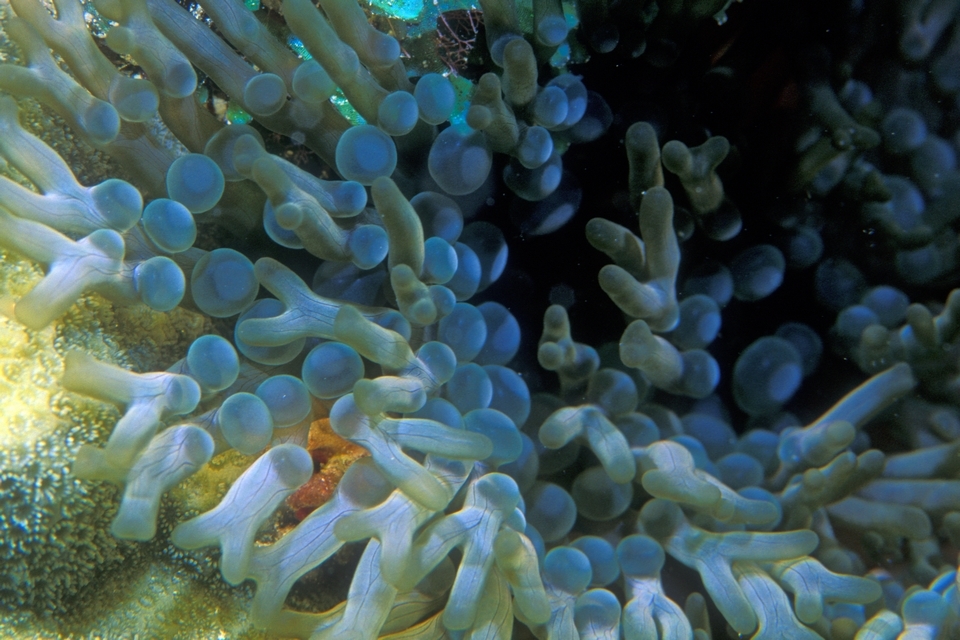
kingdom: Animalia
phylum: Cnidaria
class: Anthozoa
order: Actiniaria
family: Aliciidae
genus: Lebrunia
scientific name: Lebrunia neglecta
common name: Branching anemone
